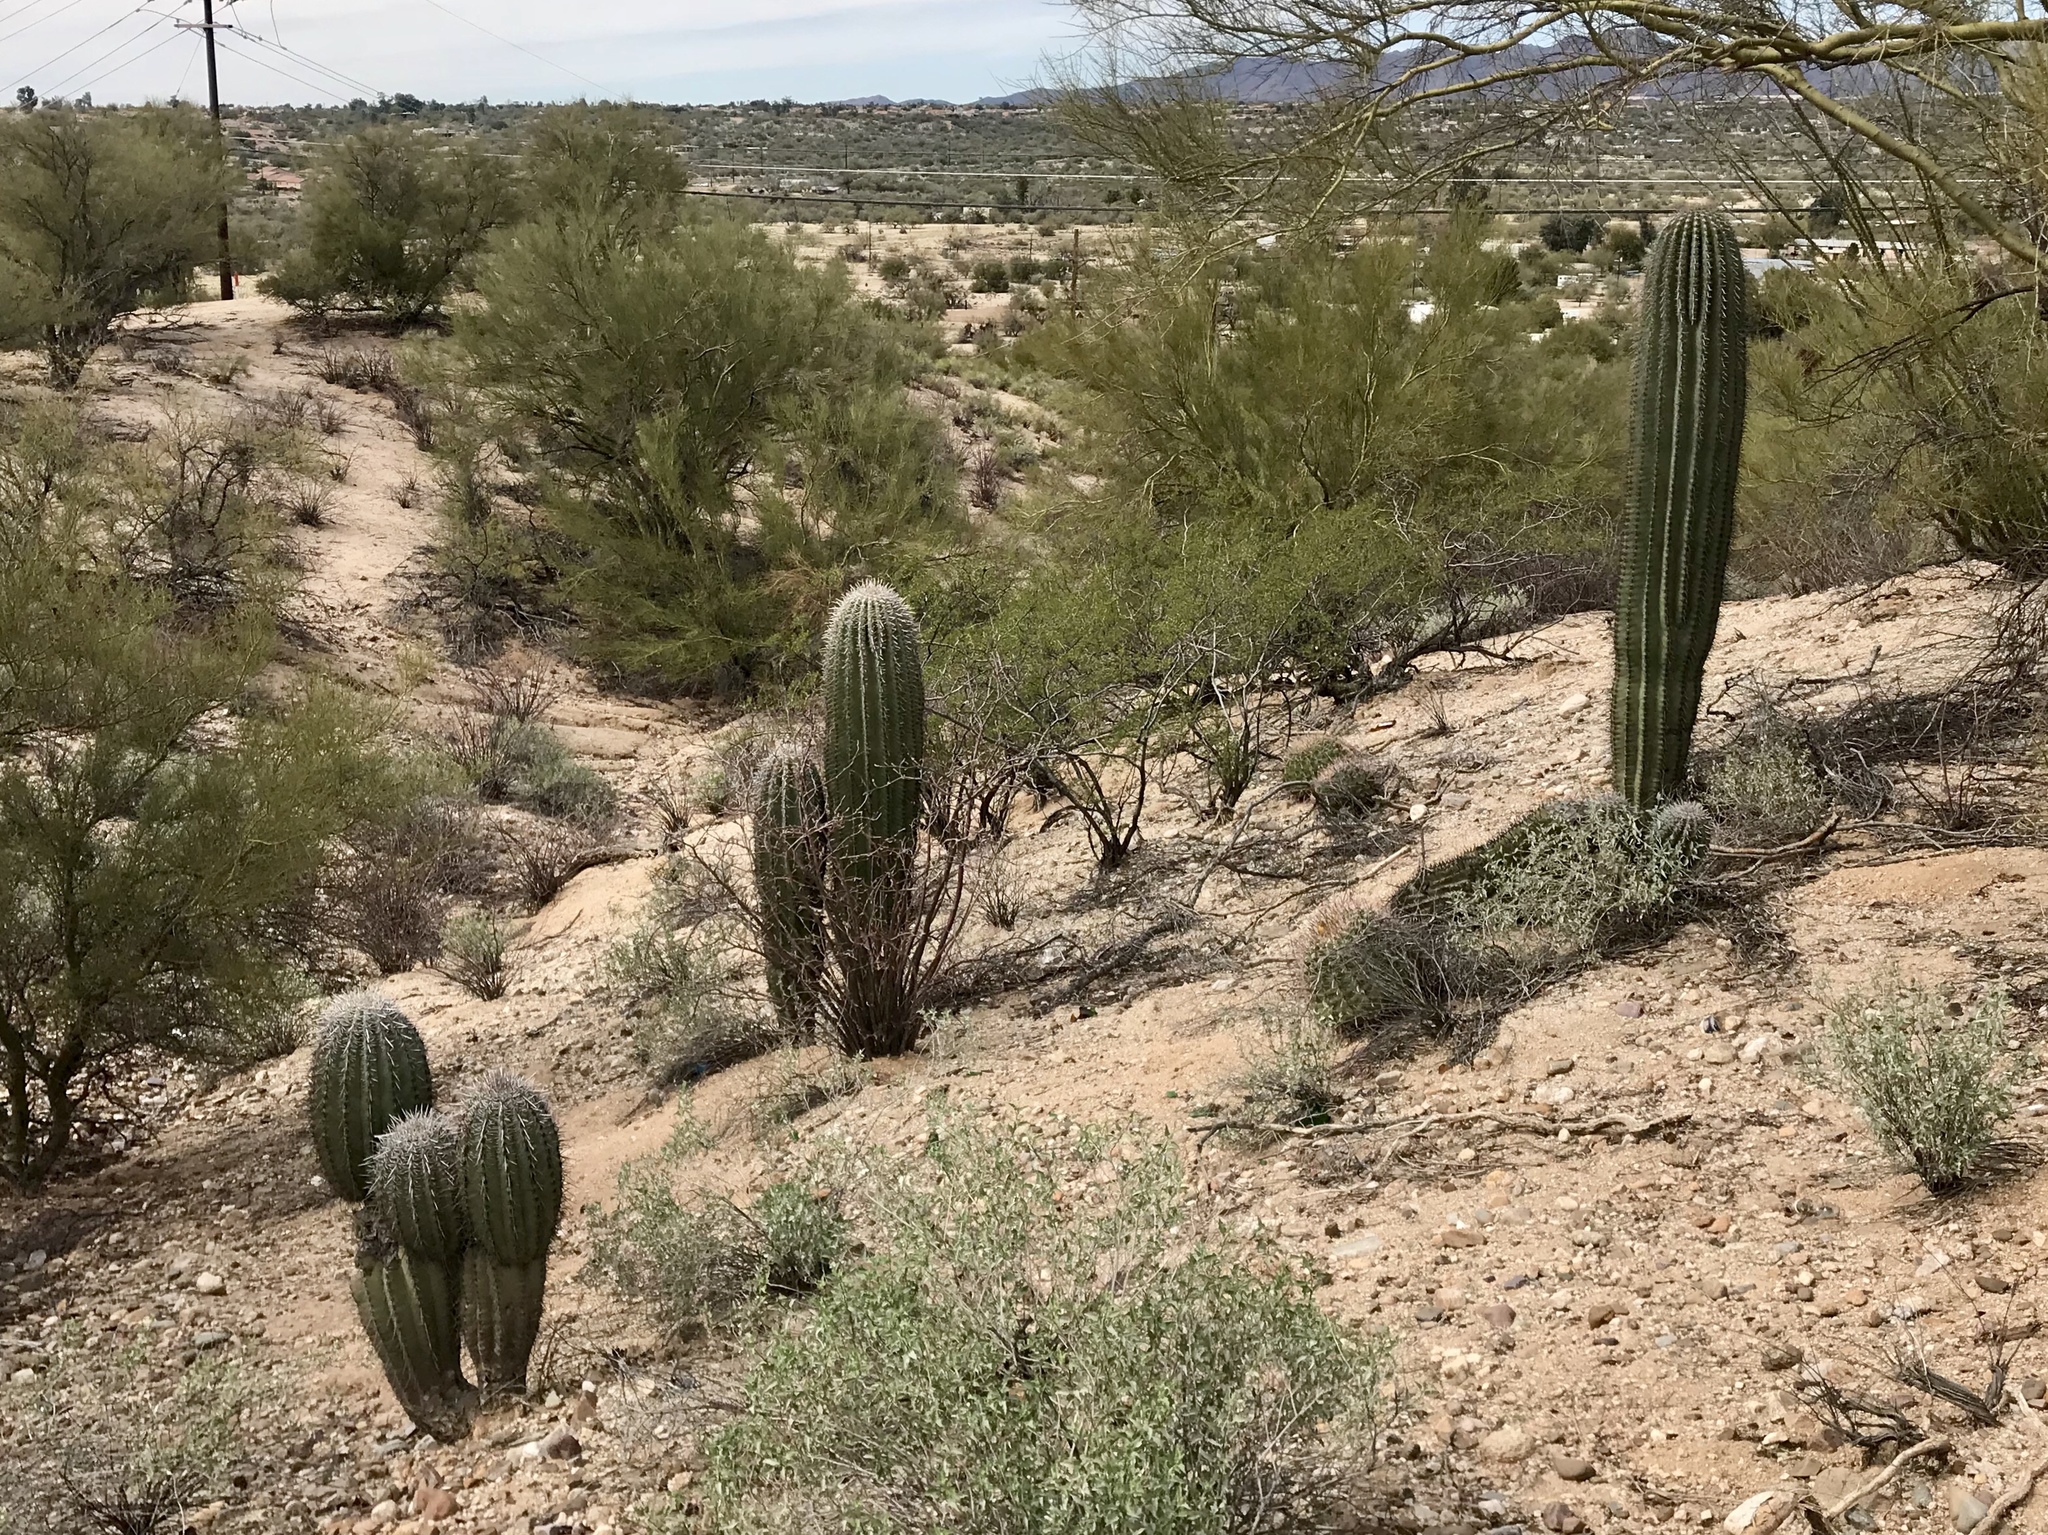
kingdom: Plantae
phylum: Tracheophyta
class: Magnoliopsida
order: Caryophyllales
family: Cactaceae
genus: Carnegiea
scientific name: Carnegiea gigantea
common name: Saguaro
